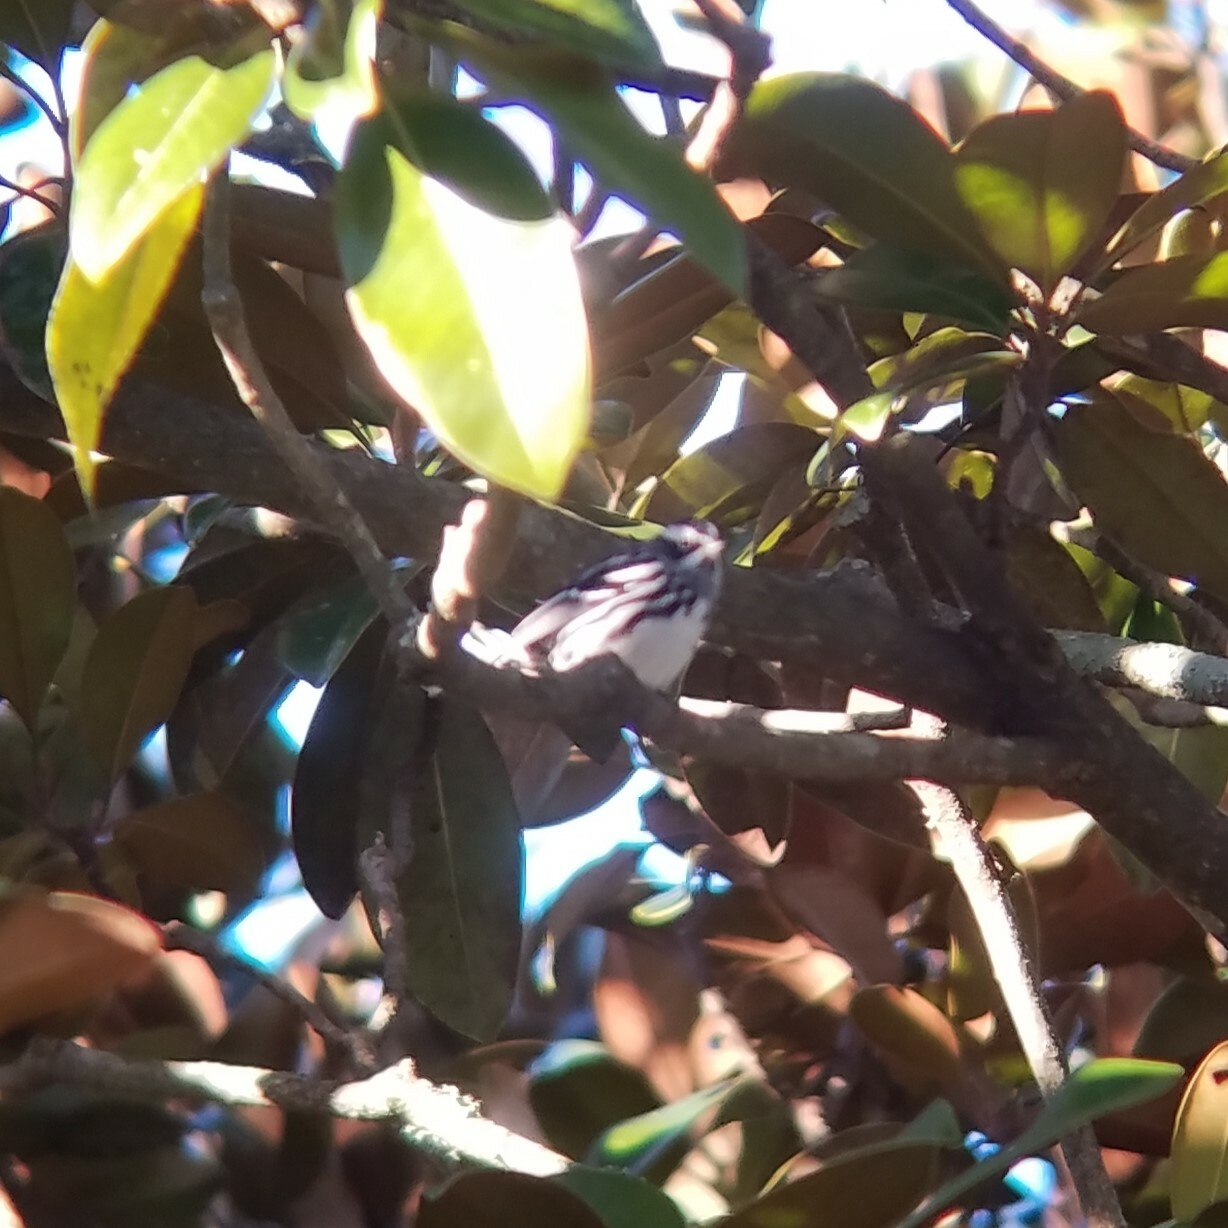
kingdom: Animalia
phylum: Chordata
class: Aves
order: Passeriformes
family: Parulidae
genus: Mniotilta
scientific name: Mniotilta varia
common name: Black-and-white warbler
